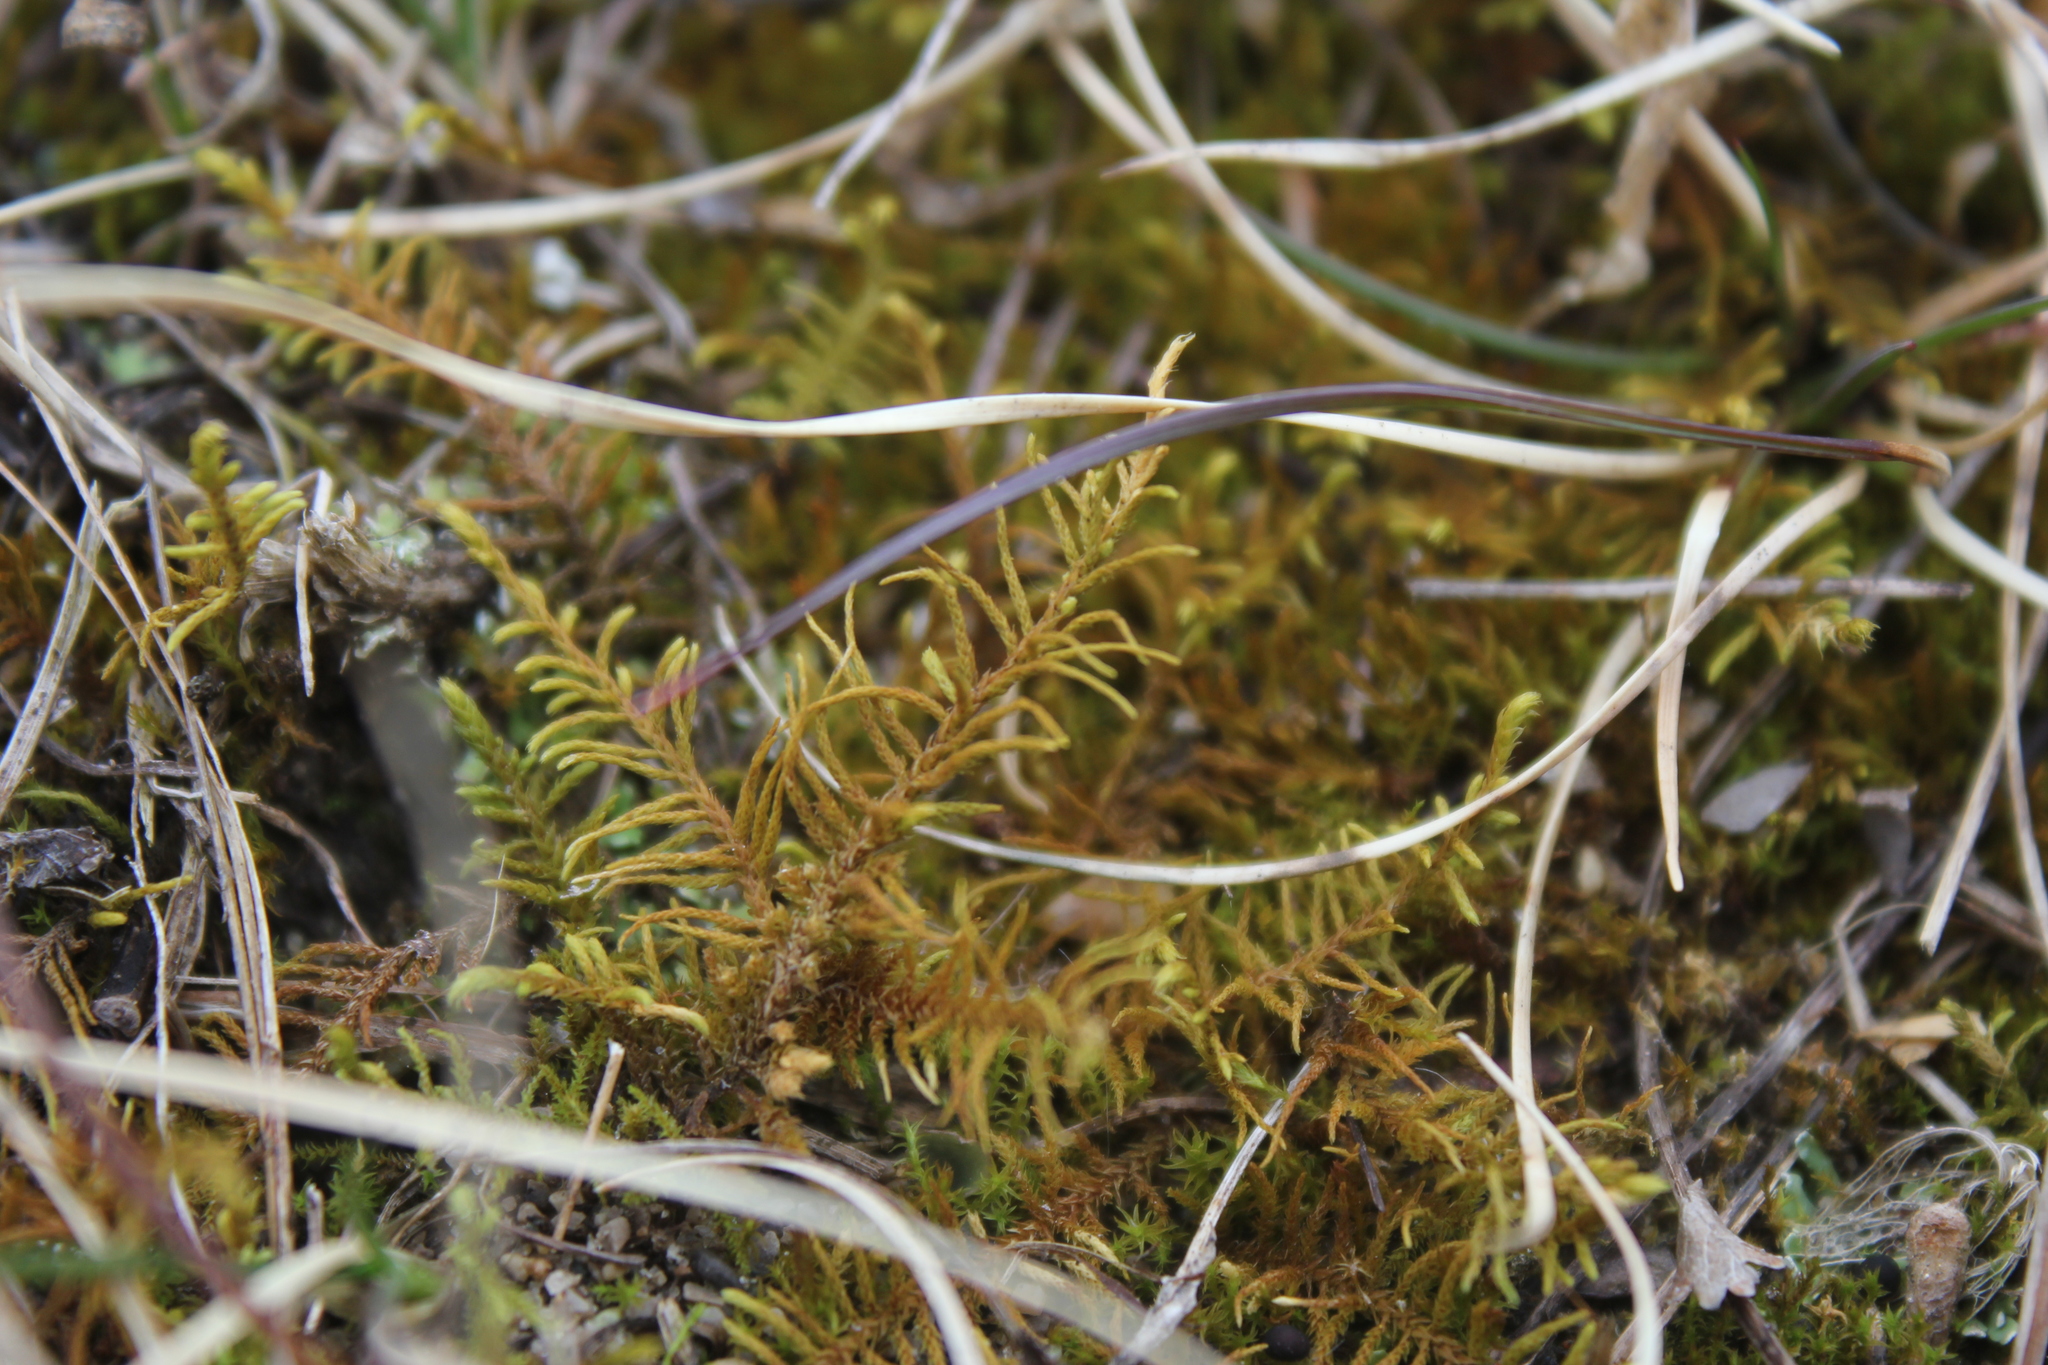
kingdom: Plantae
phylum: Bryophyta
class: Bryopsida
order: Hypnales
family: Thuidiaceae
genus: Abietinella
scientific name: Abietinella abietina
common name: Wiry fern moss
